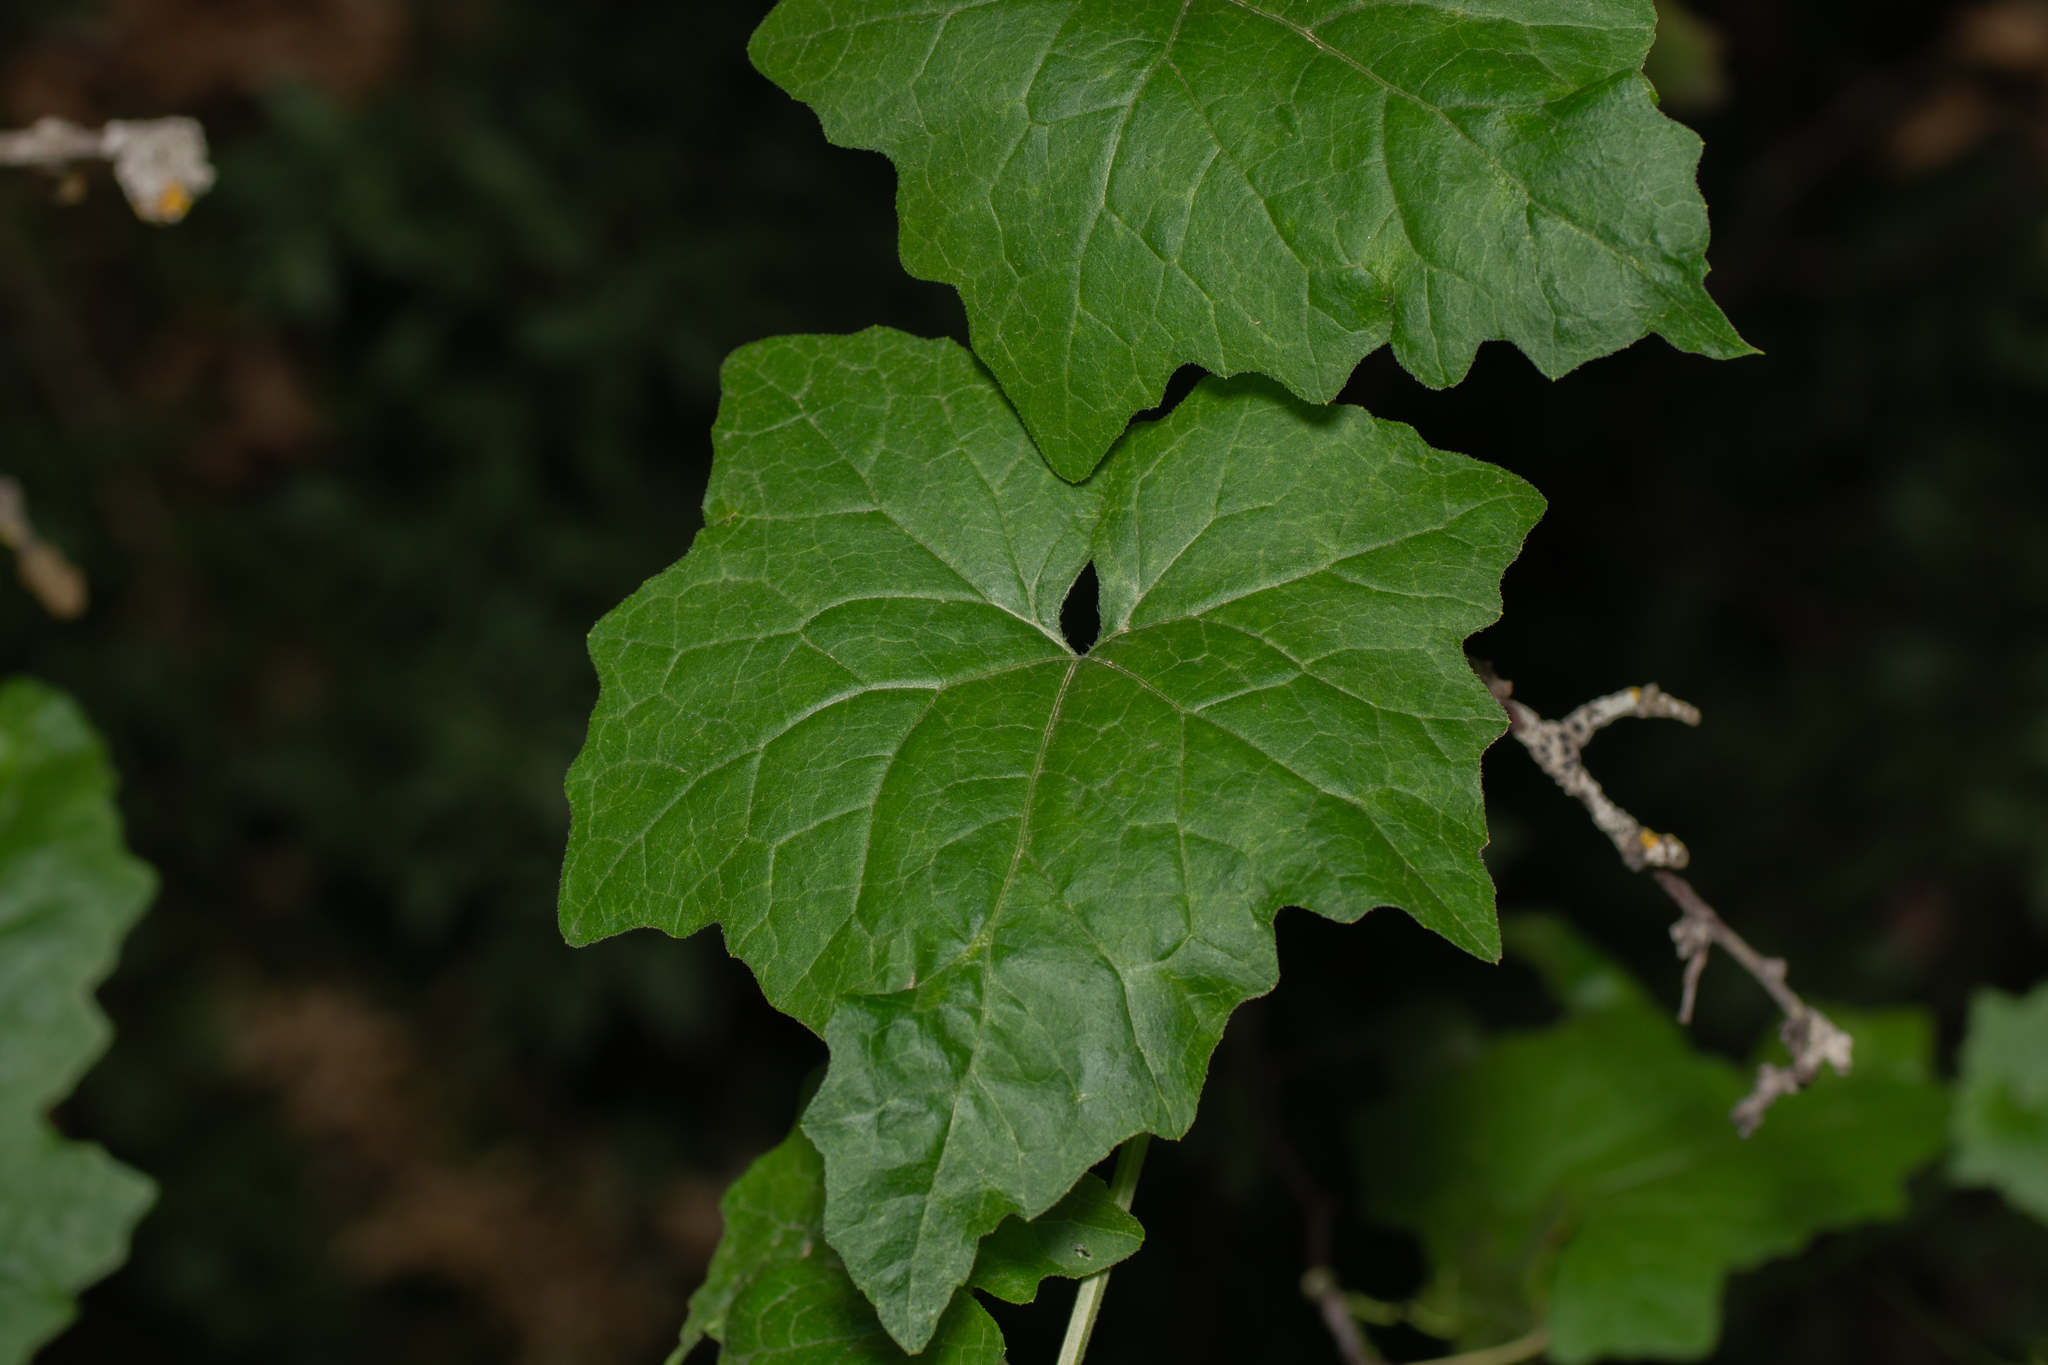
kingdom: Plantae
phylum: Tracheophyta
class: Magnoliopsida
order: Cucurbitales
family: Cucurbitaceae
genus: Bryonia
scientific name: Bryonia cretica
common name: Cretan bryony
